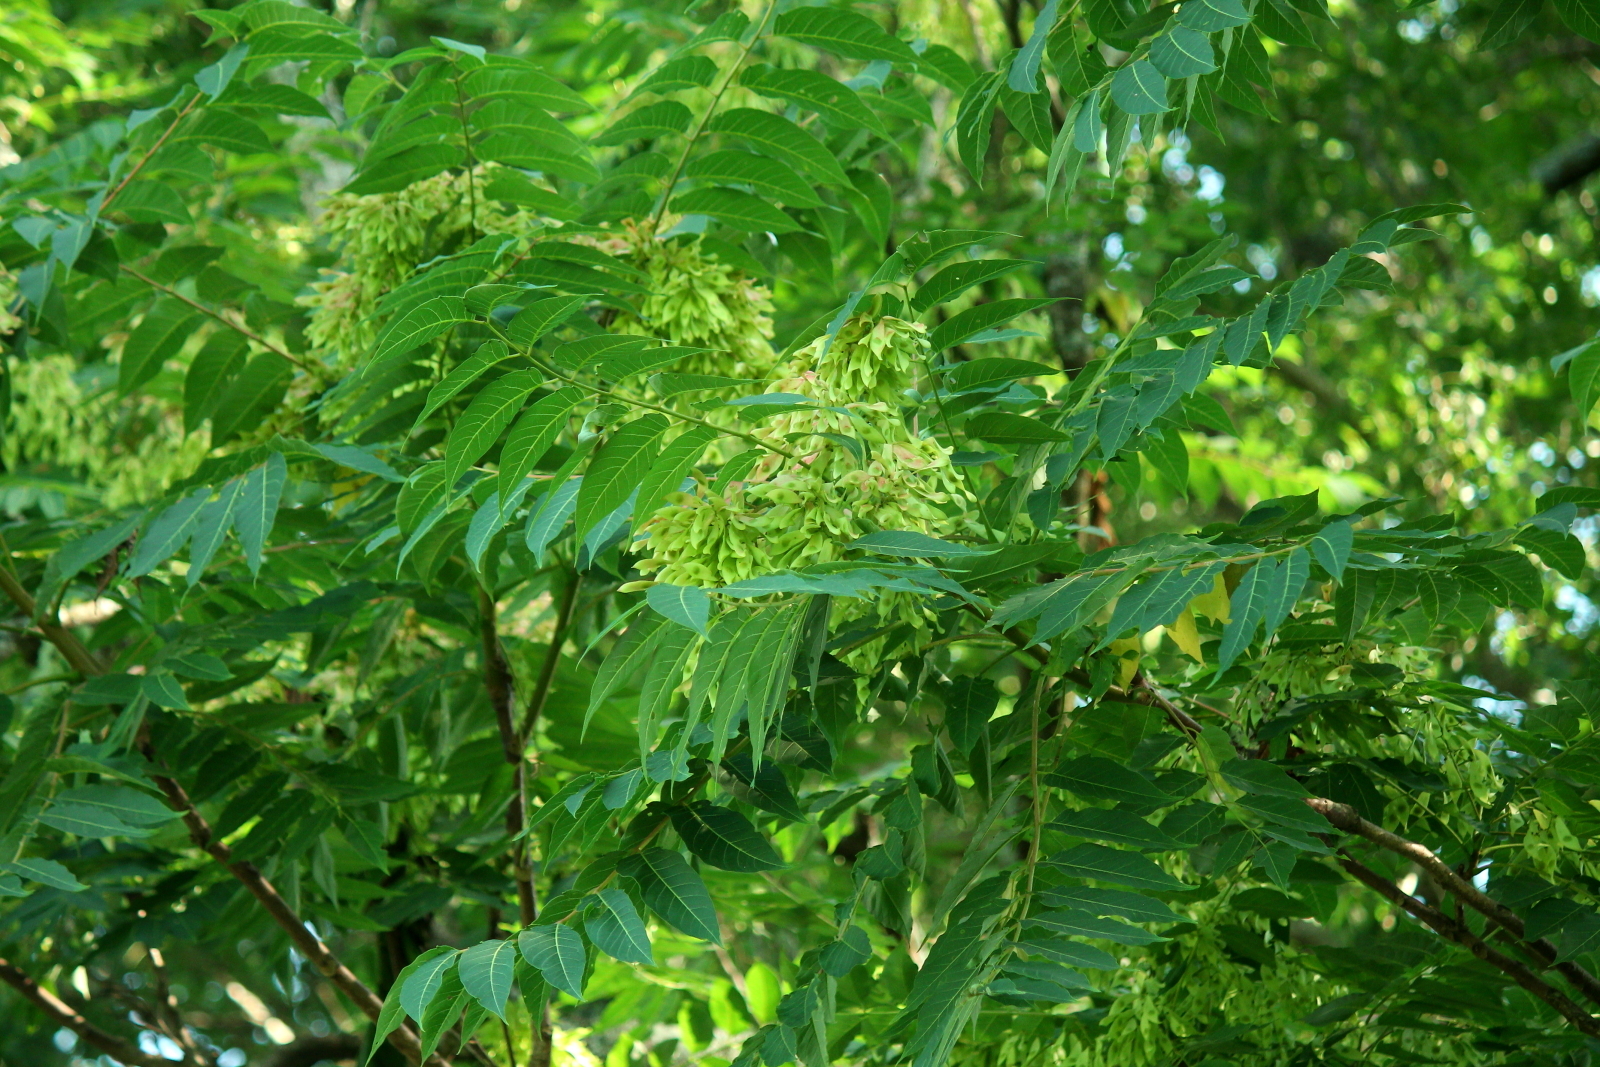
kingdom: Plantae
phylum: Tracheophyta
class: Magnoliopsida
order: Sapindales
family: Simaroubaceae
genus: Ailanthus
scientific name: Ailanthus altissima
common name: Tree-of-heaven
